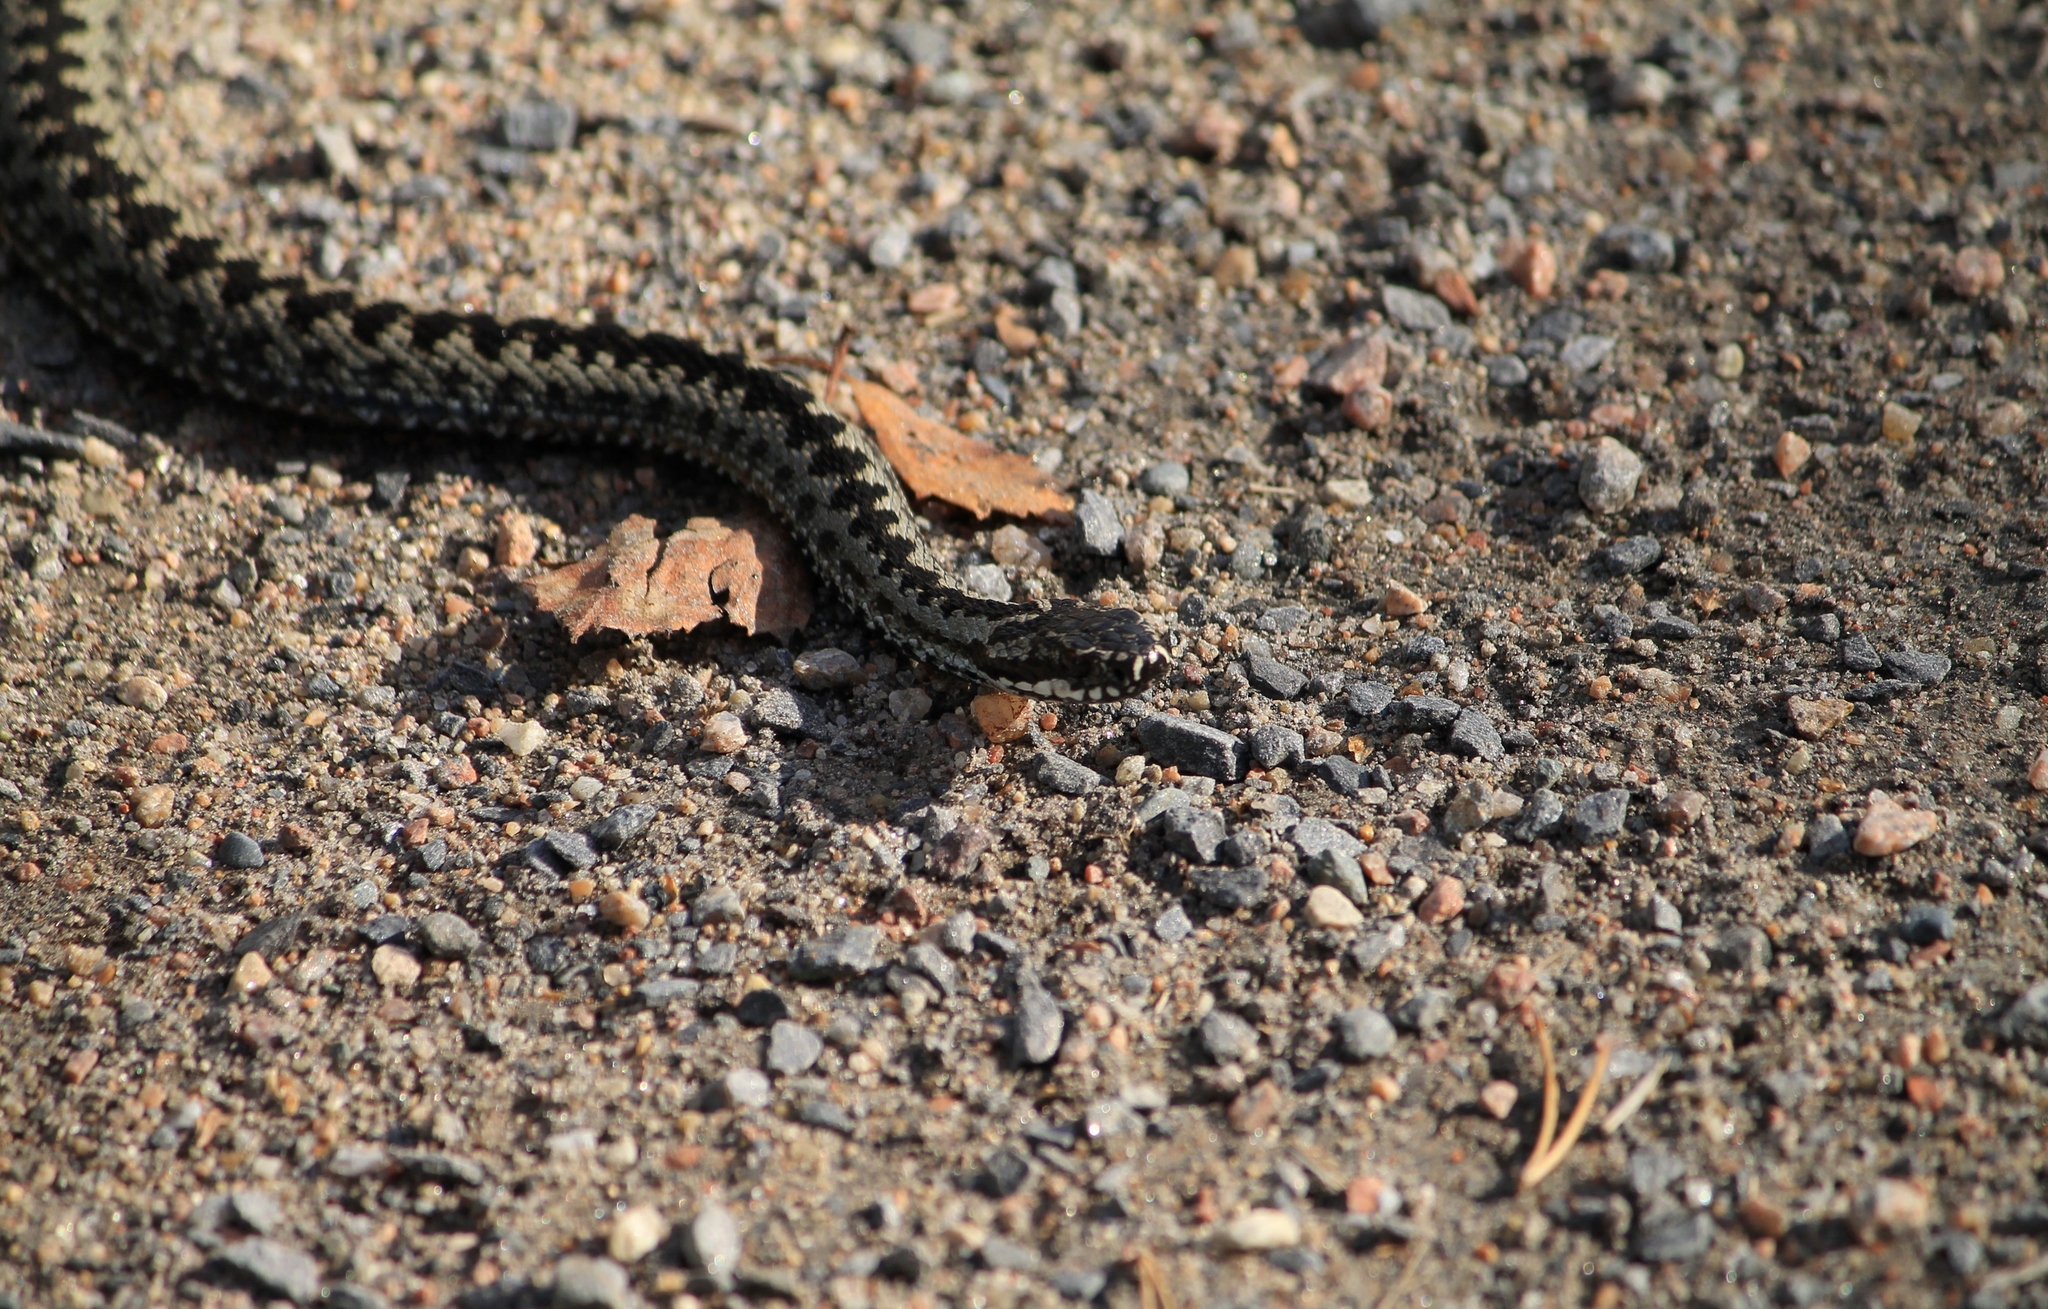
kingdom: Animalia
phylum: Chordata
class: Squamata
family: Viperidae
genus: Vipera
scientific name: Vipera berus
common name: Adder
